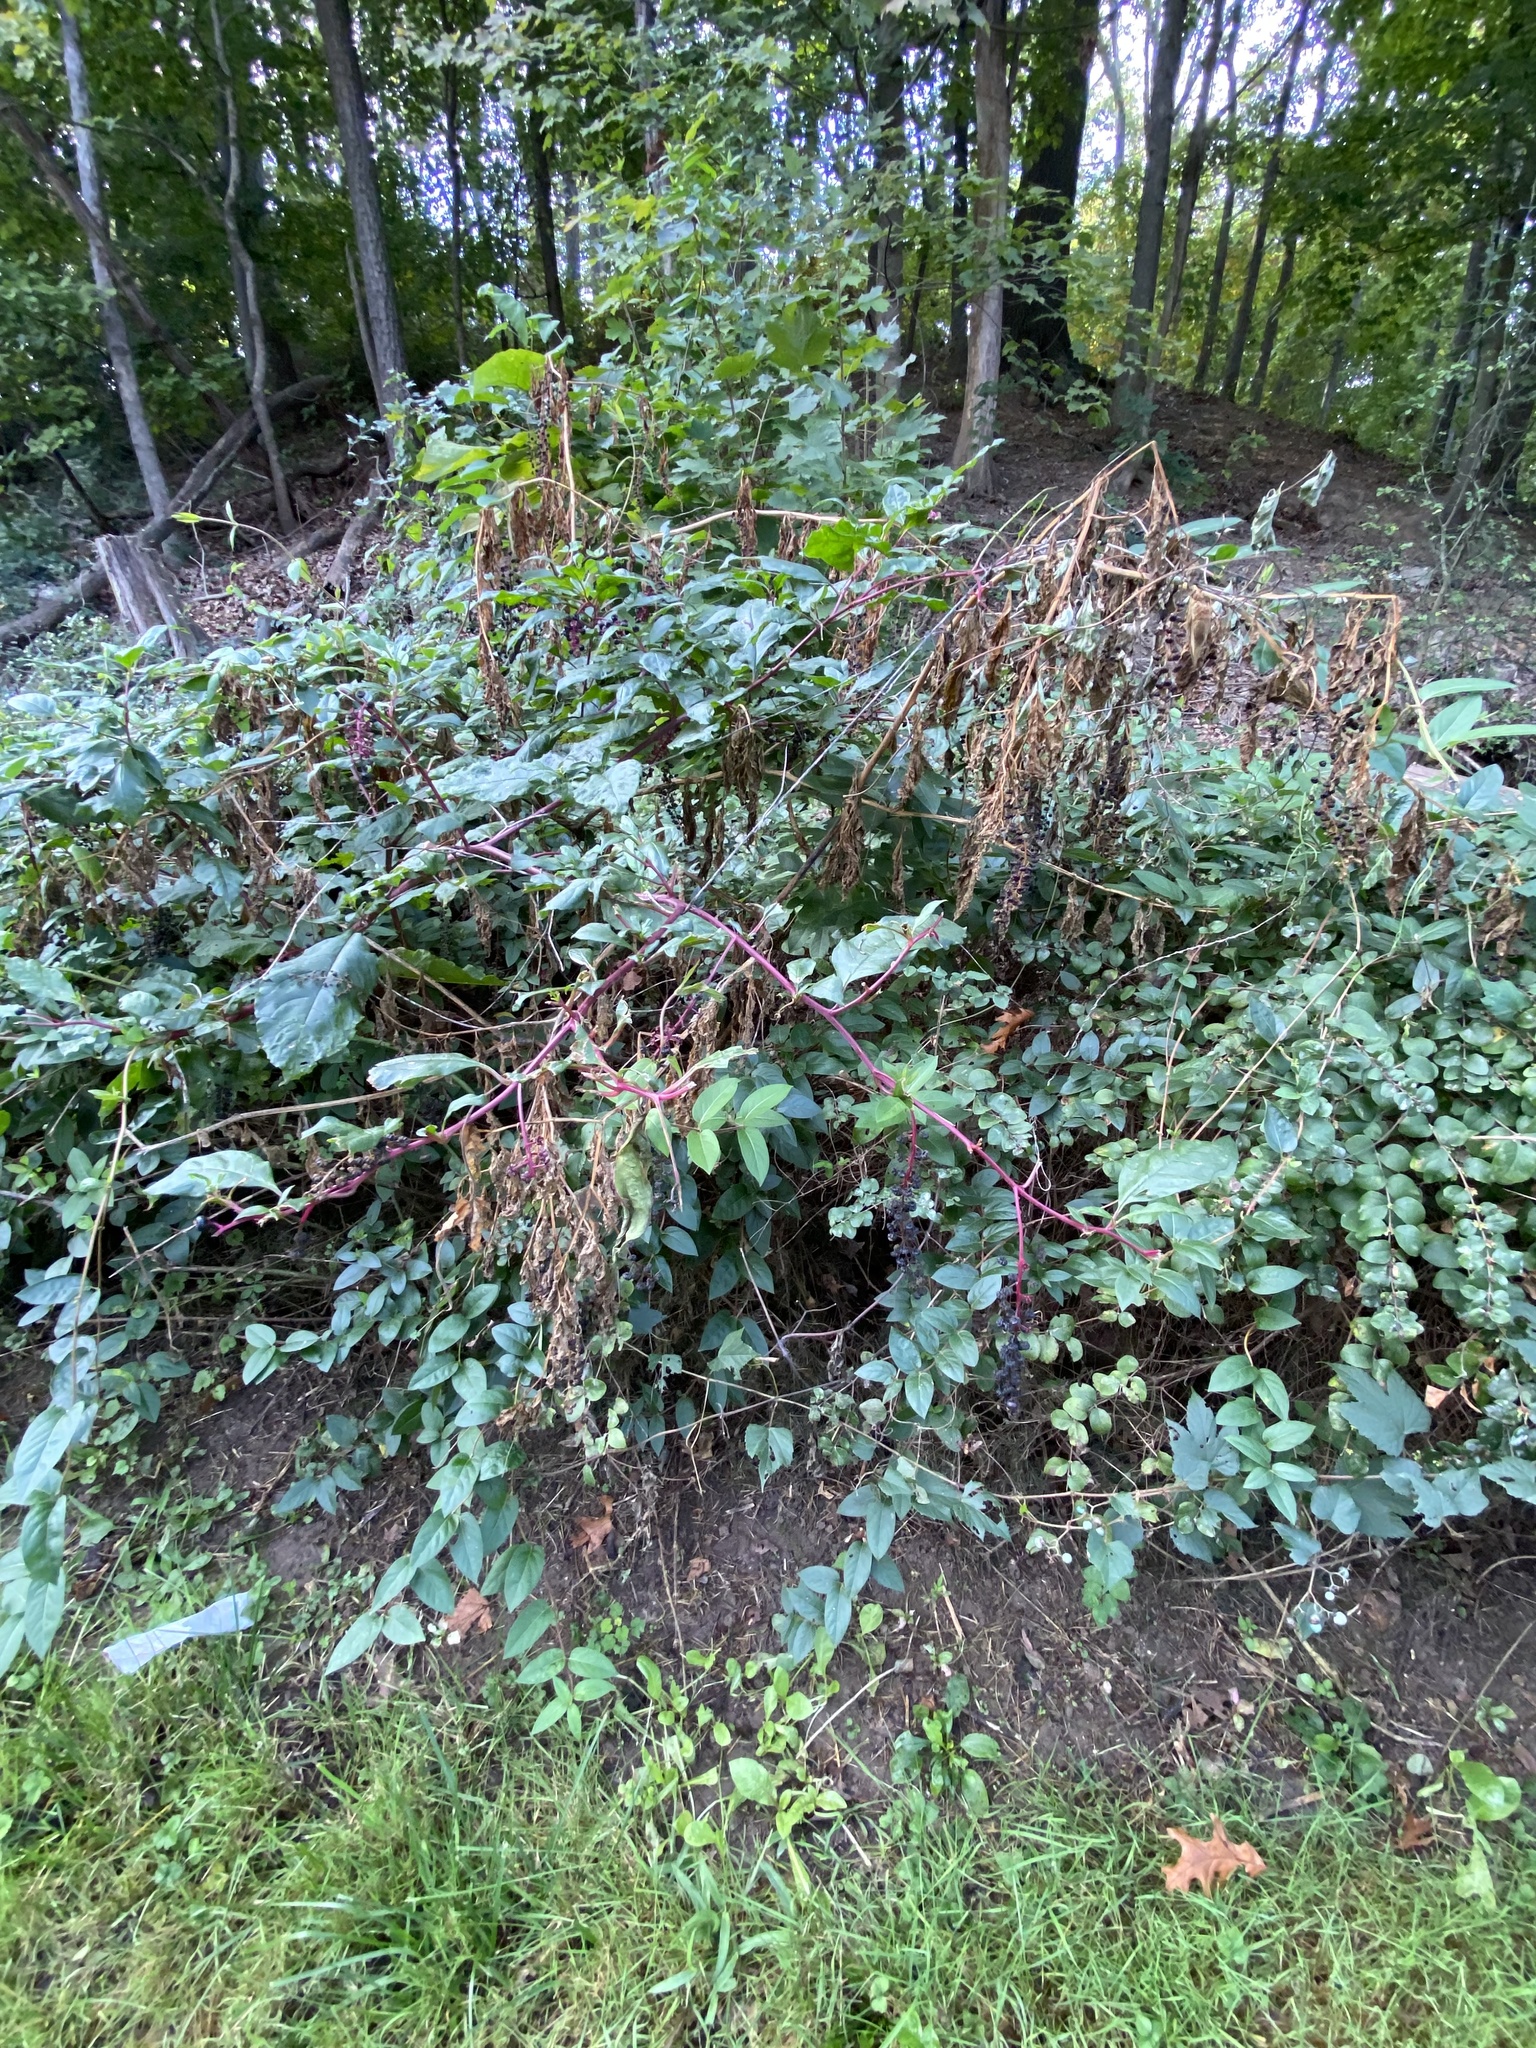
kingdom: Plantae
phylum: Tracheophyta
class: Magnoliopsida
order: Vitales
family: Vitaceae
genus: Ampelopsis
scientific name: Ampelopsis glandulosa
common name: Amur peppervine
